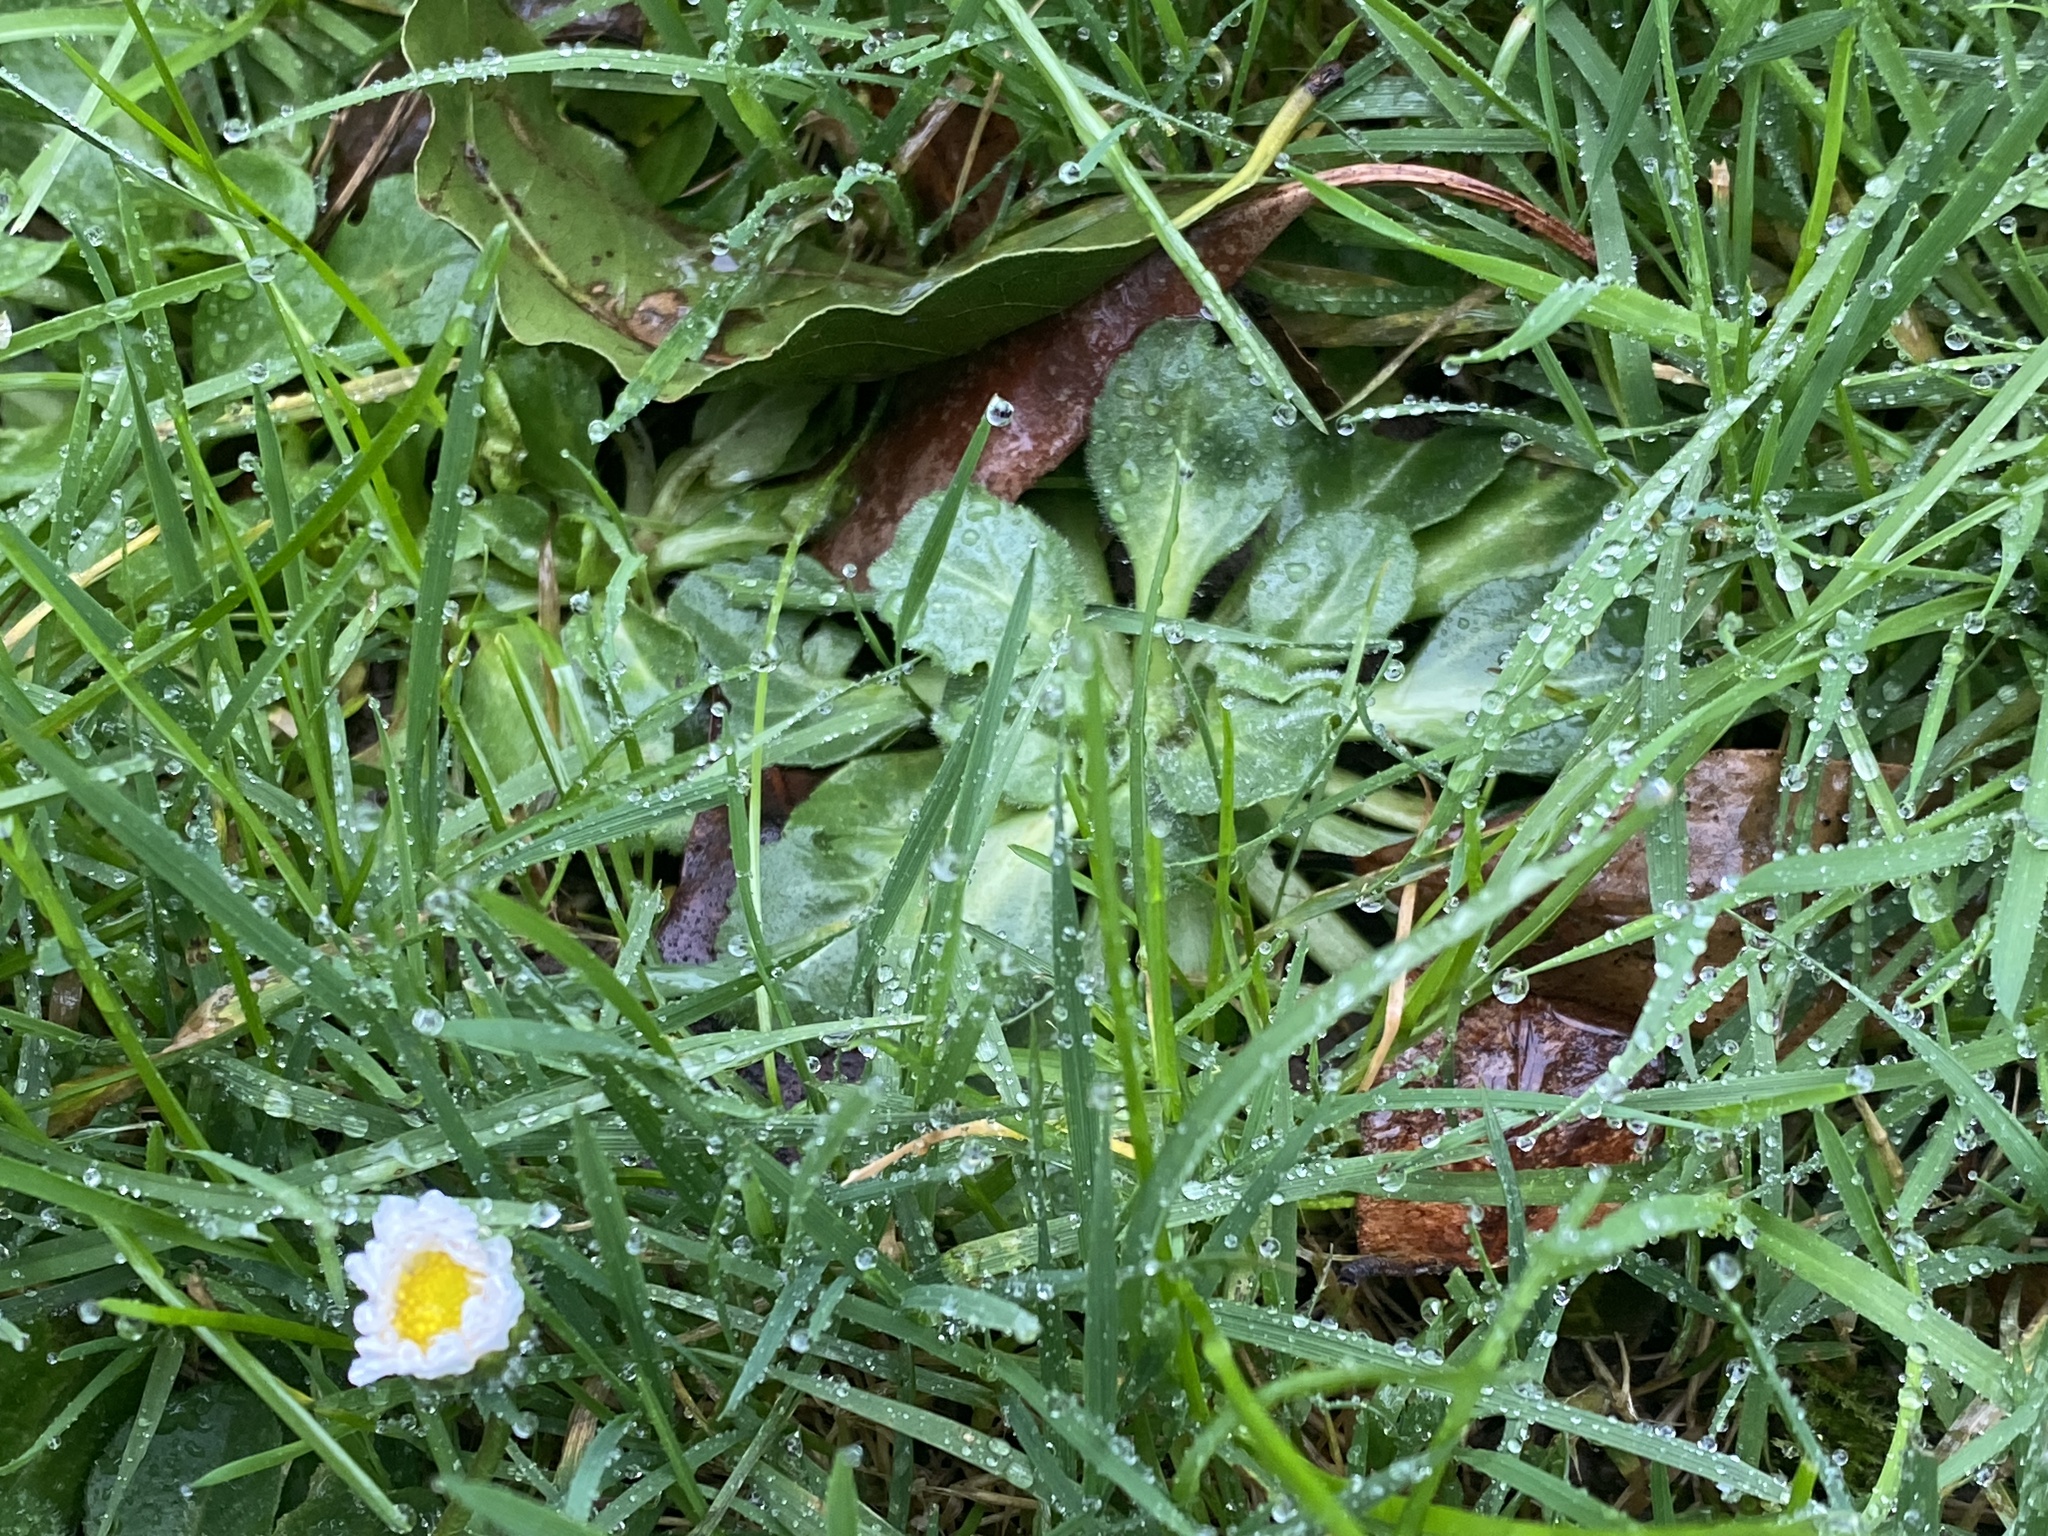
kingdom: Plantae
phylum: Tracheophyta
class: Magnoliopsida
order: Asterales
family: Asteraceae
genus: Bellis
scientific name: Bellis perennis
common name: Lawndaisy
